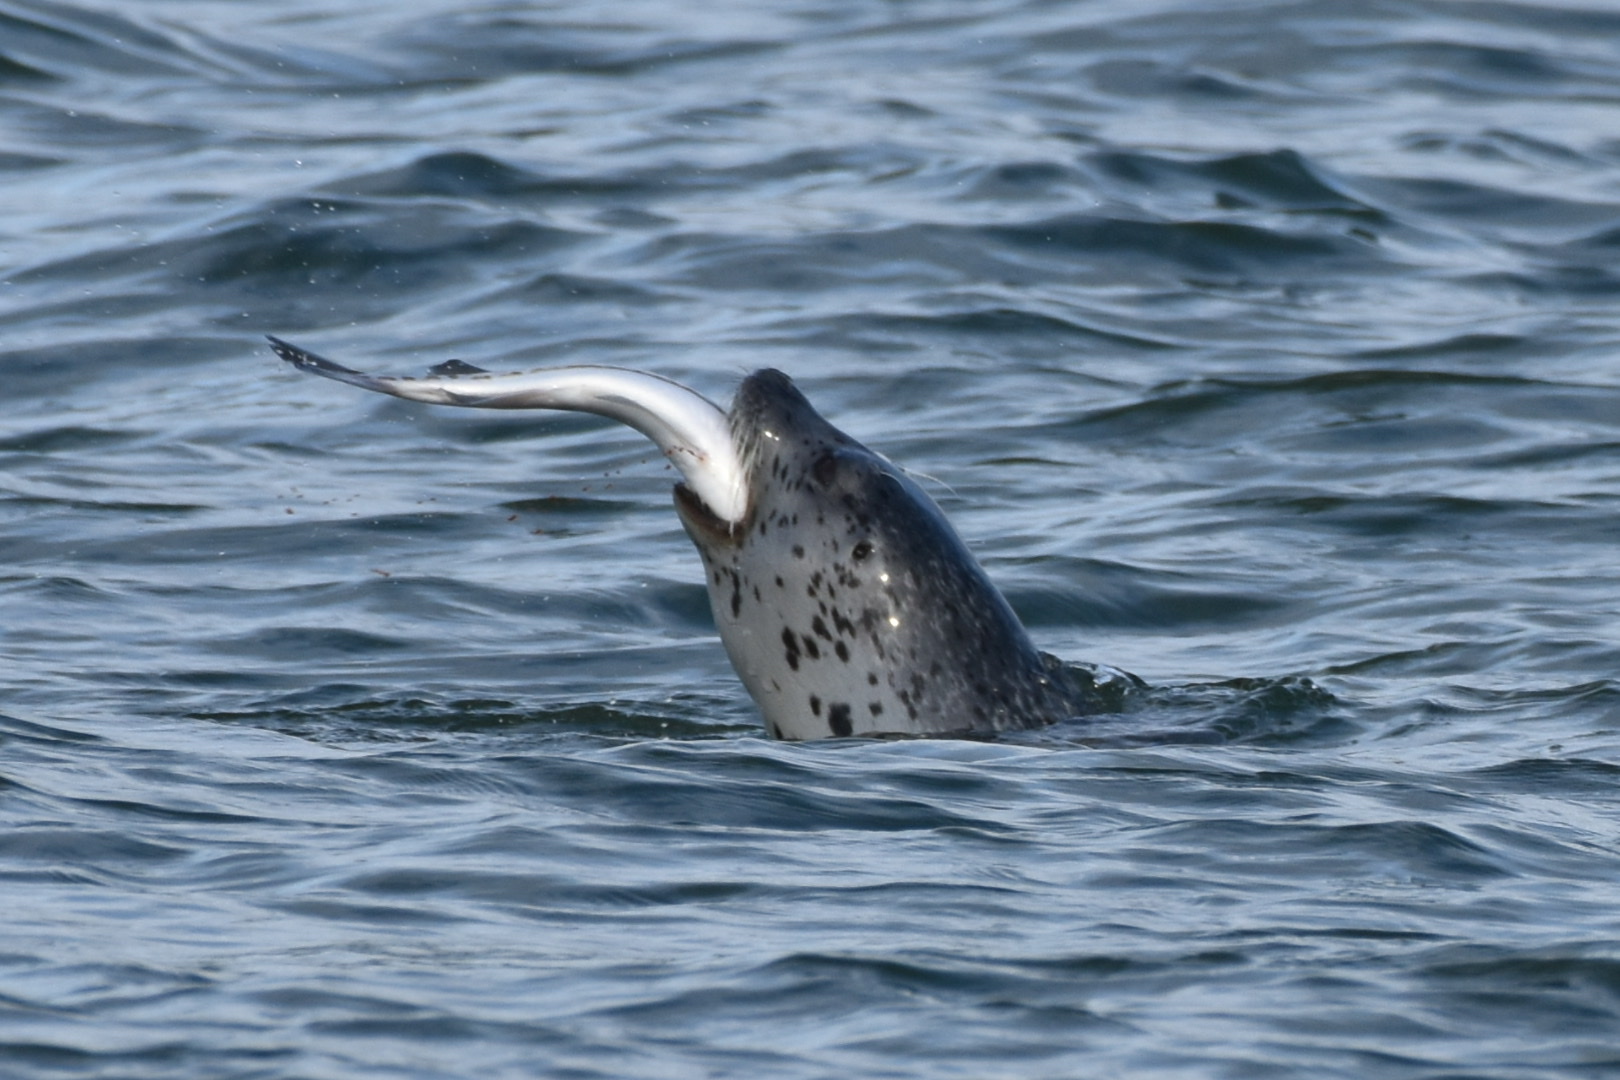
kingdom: Animalia
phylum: Chordata
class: Mammalia
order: Carnivora
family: Phocidae
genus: Phoca
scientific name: Phoca largha
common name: Spotted seal
